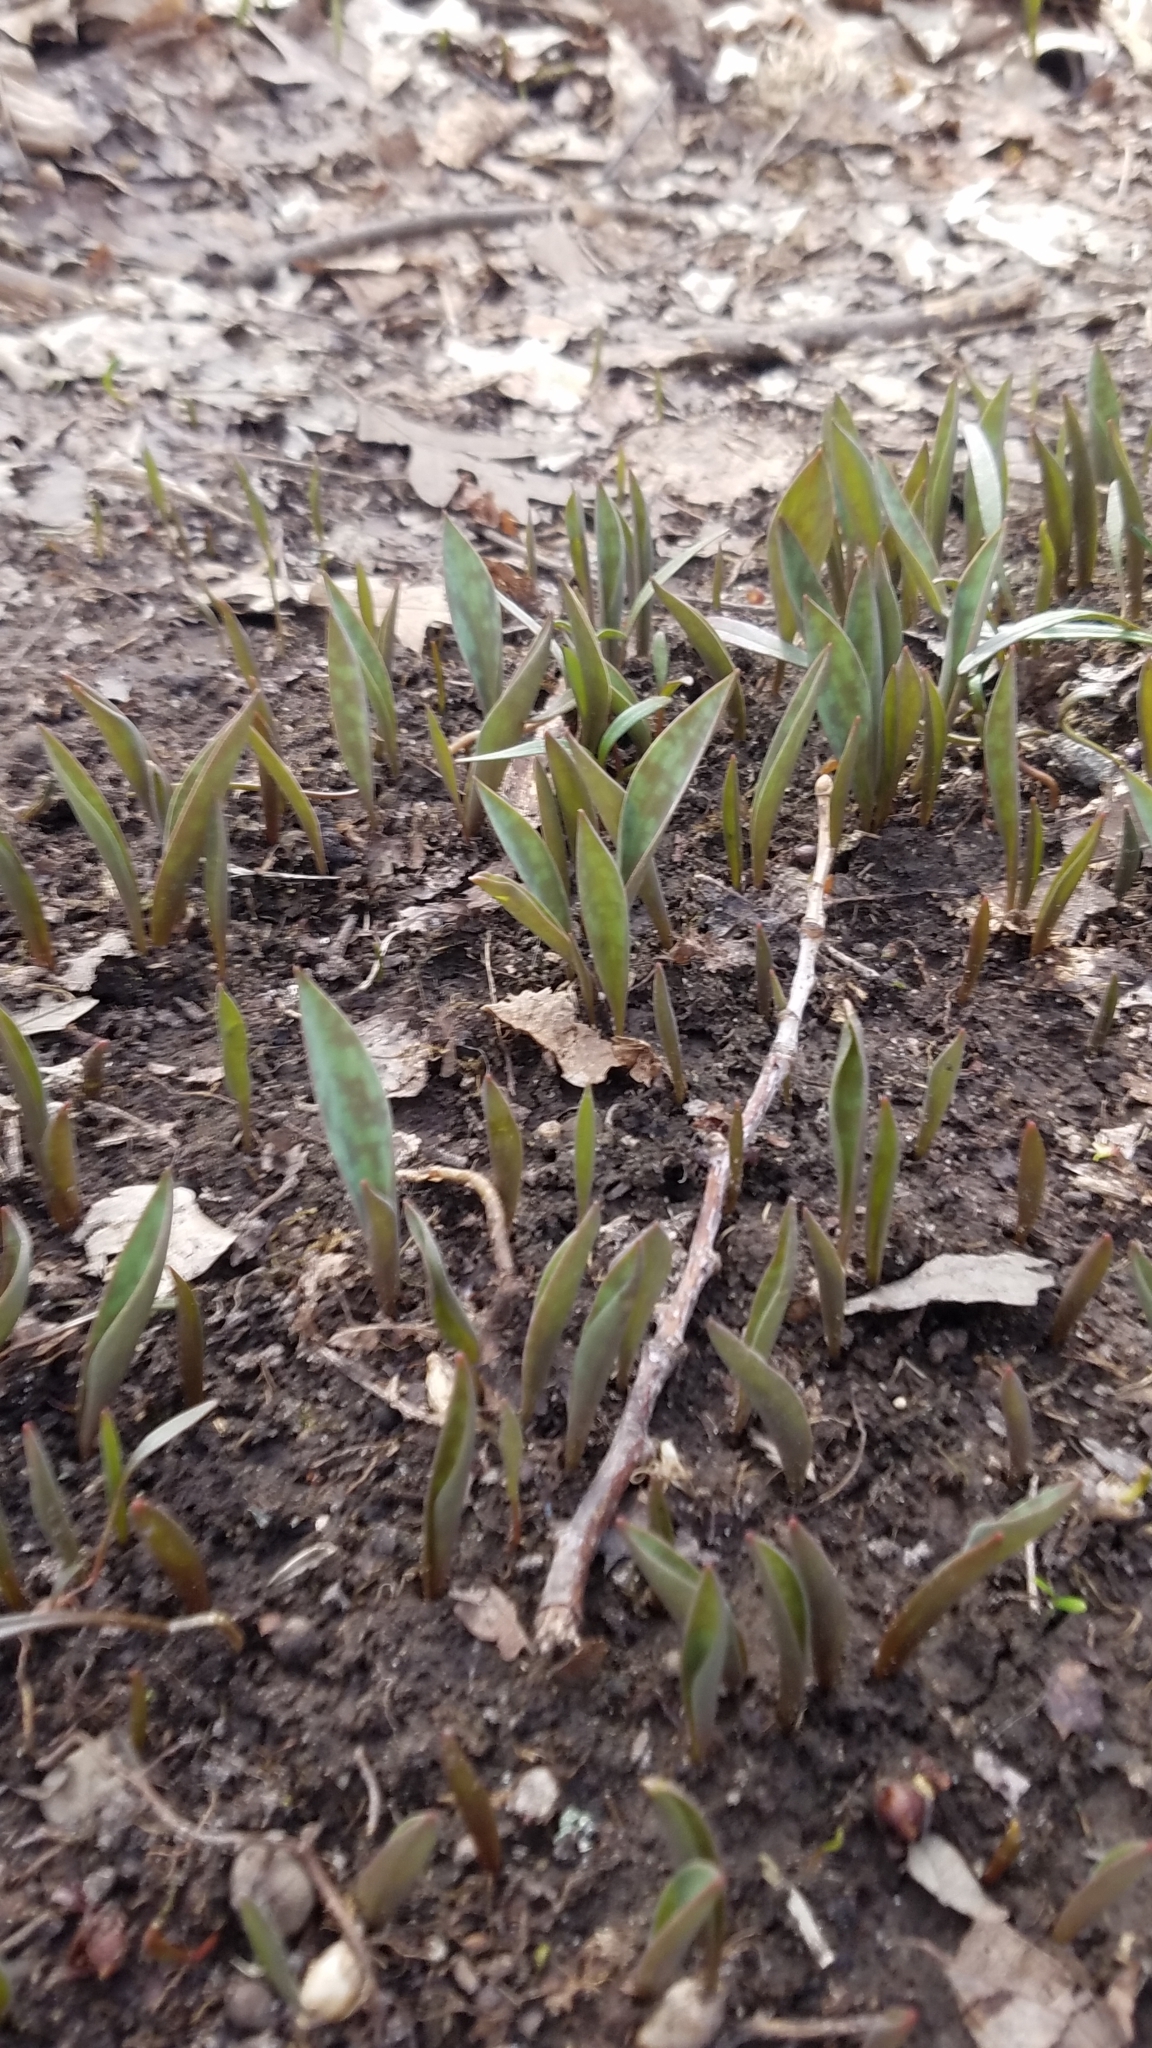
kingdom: Plantae
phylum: Tracheophyta
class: Liliopsida
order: Liliales
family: Liliaceae
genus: Erythronium
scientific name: Erythronium
